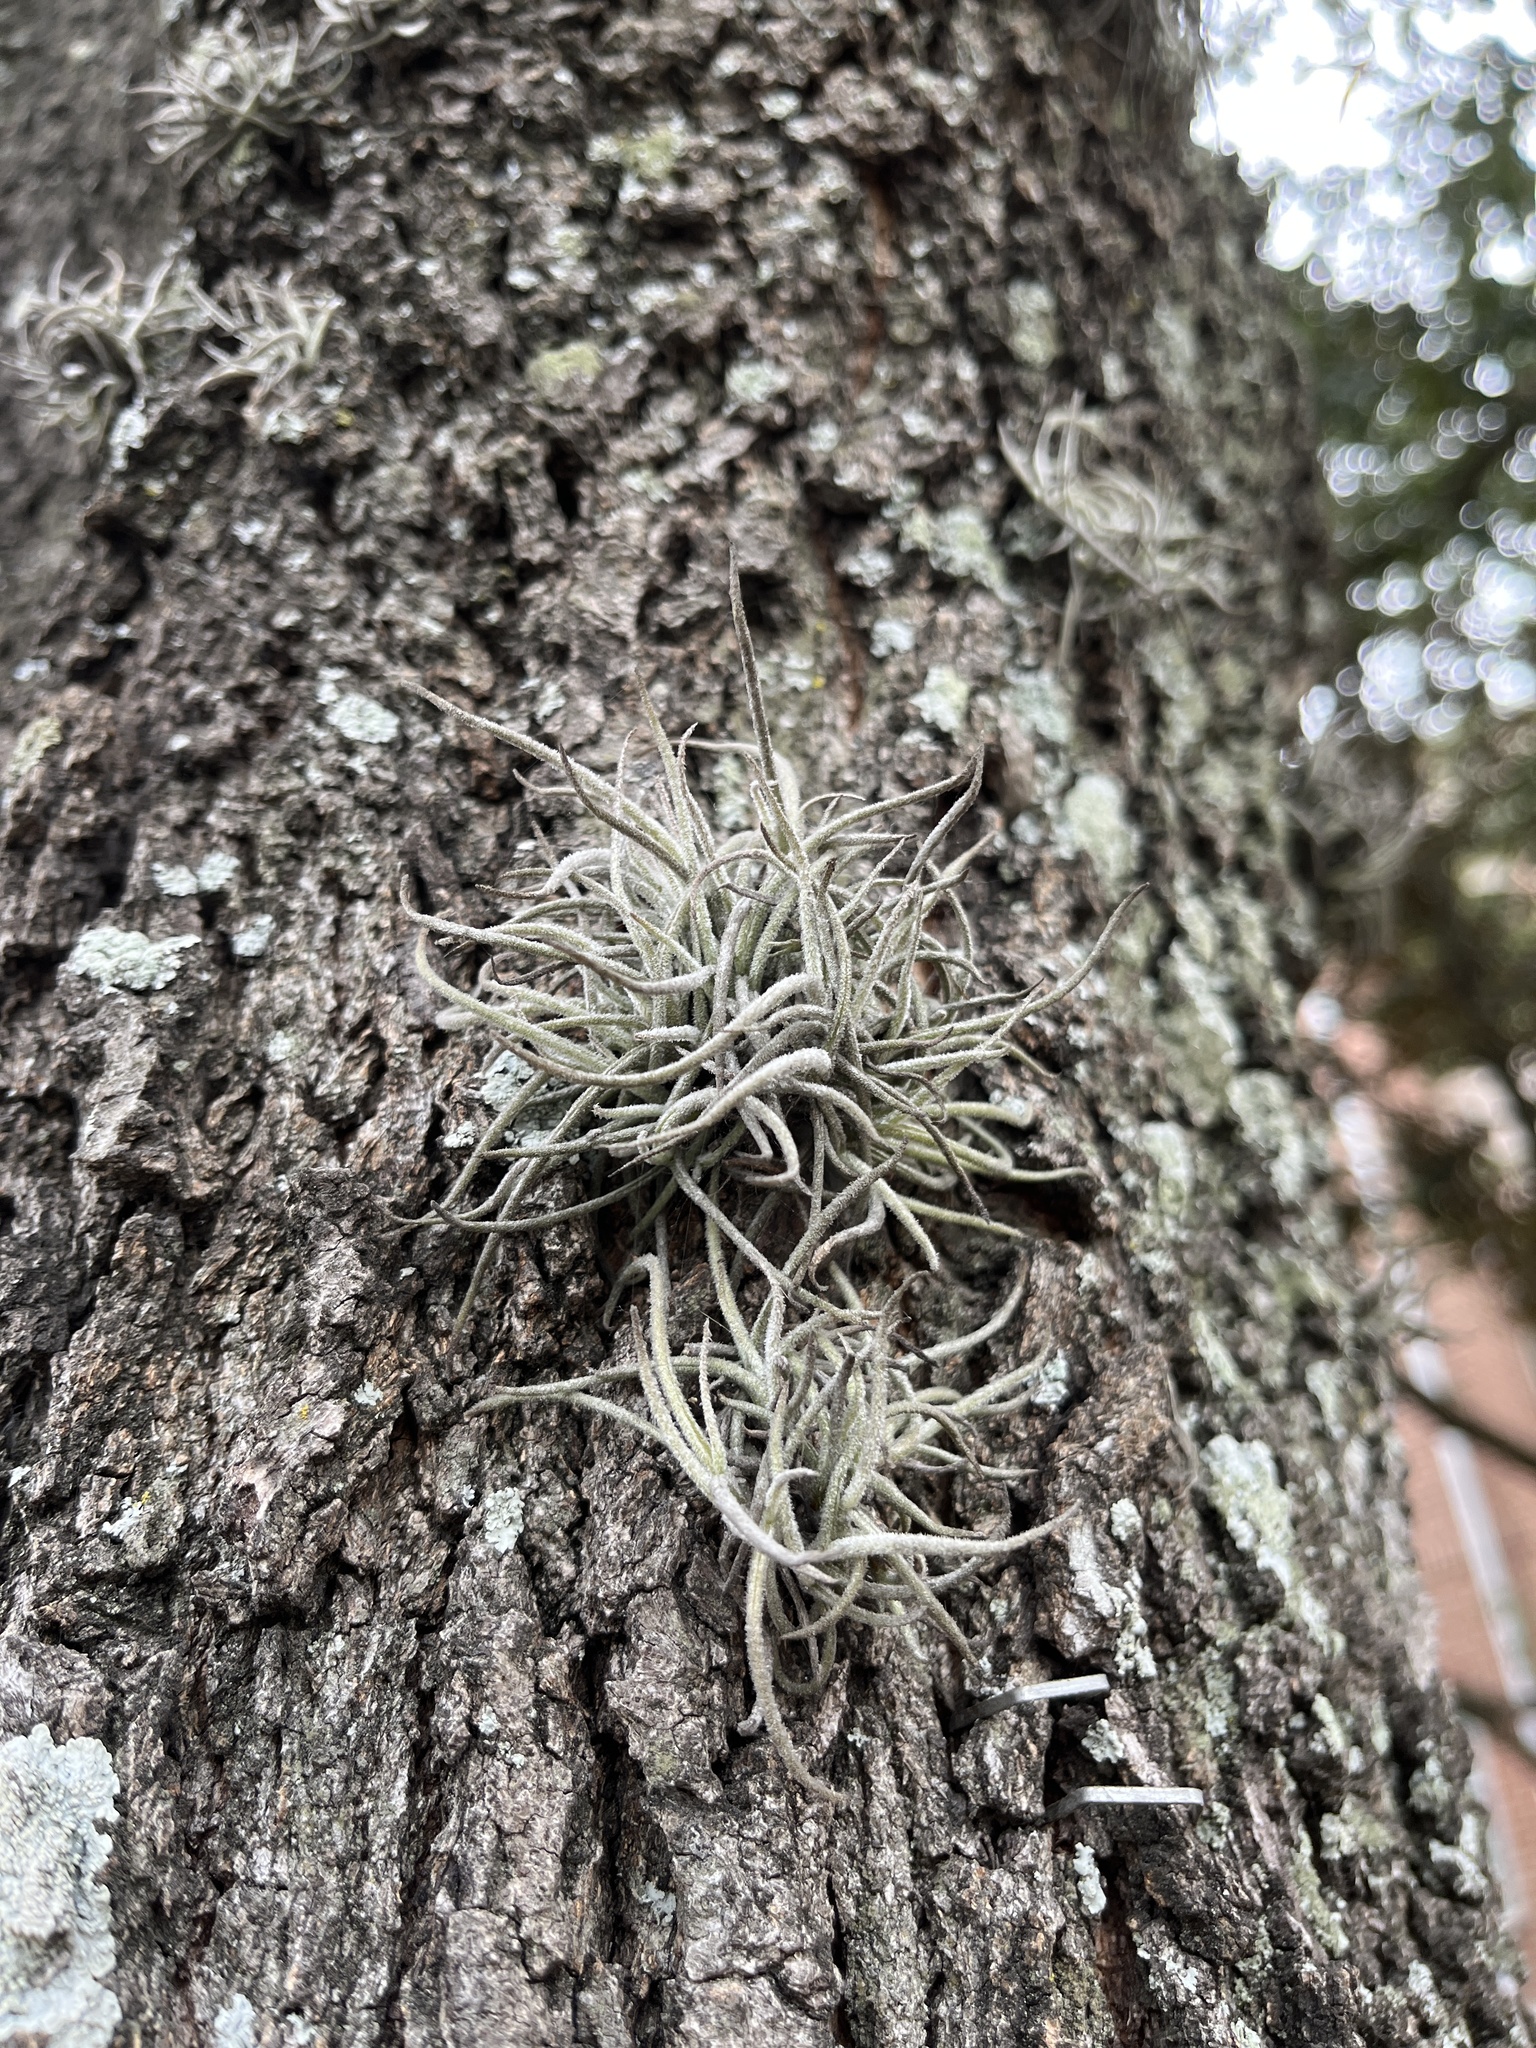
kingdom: Plantae
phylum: Tracheophyta
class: Liliopsida
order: Poales
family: Bromeliaceae
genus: Tillandsia
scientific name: Tillandsia recurvata
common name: Small ballmoss
